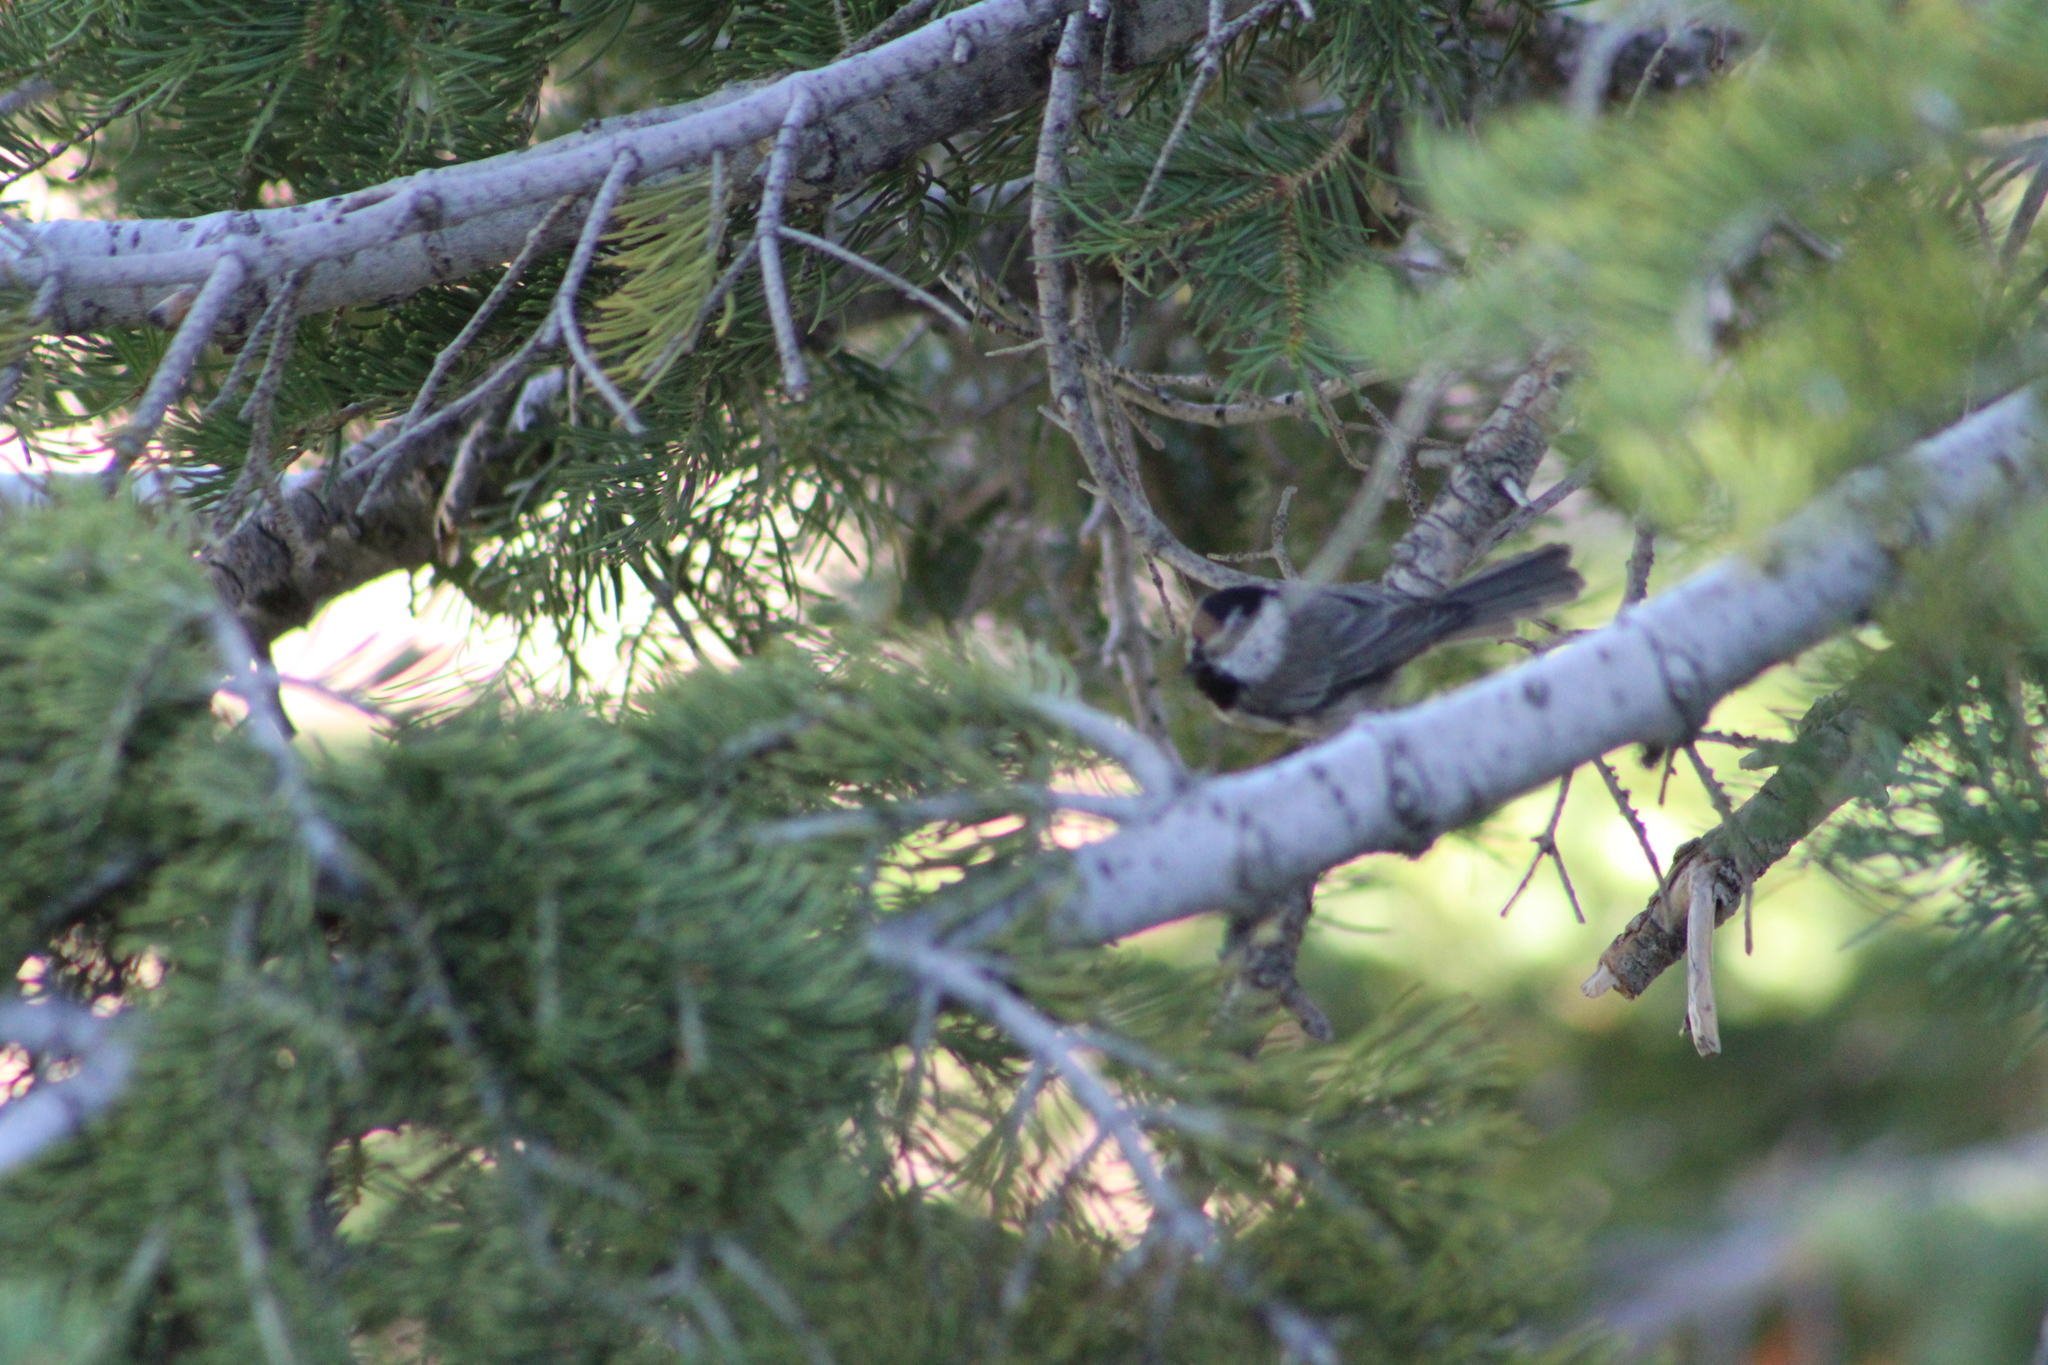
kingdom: Animalia
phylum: Chordata
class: Aves
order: Passeriformes
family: Paridae
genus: Poecile
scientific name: Poecile gambeli
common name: Mountain chickadee
